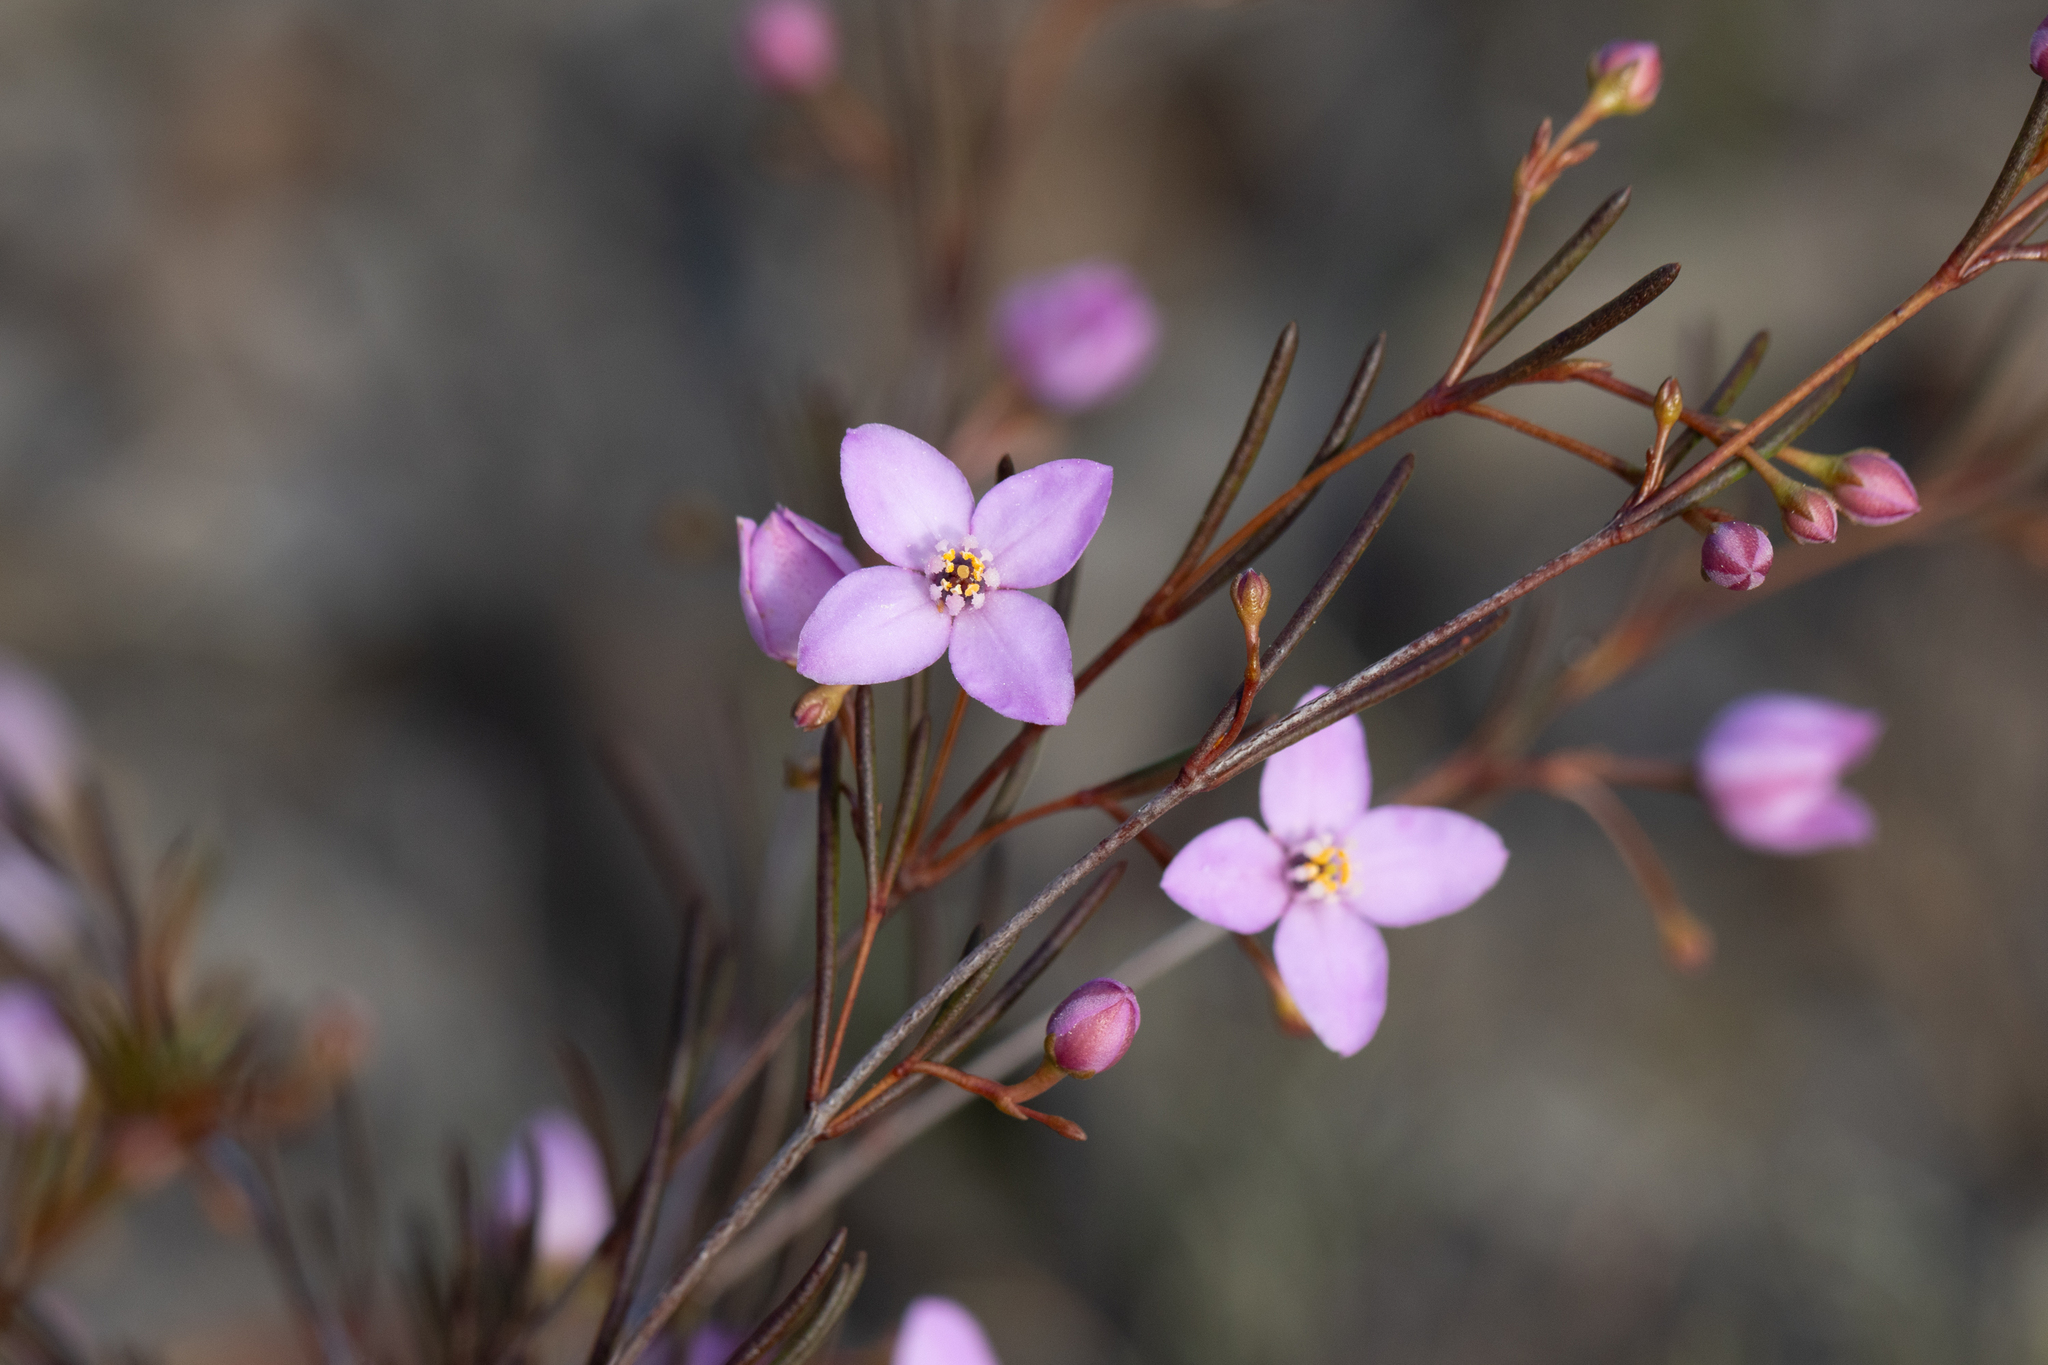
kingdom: Plantae
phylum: Tracheophyta
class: Magnoliopsida
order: Sapindales
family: Rutaceae
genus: Boronia
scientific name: Boronia filifolia
